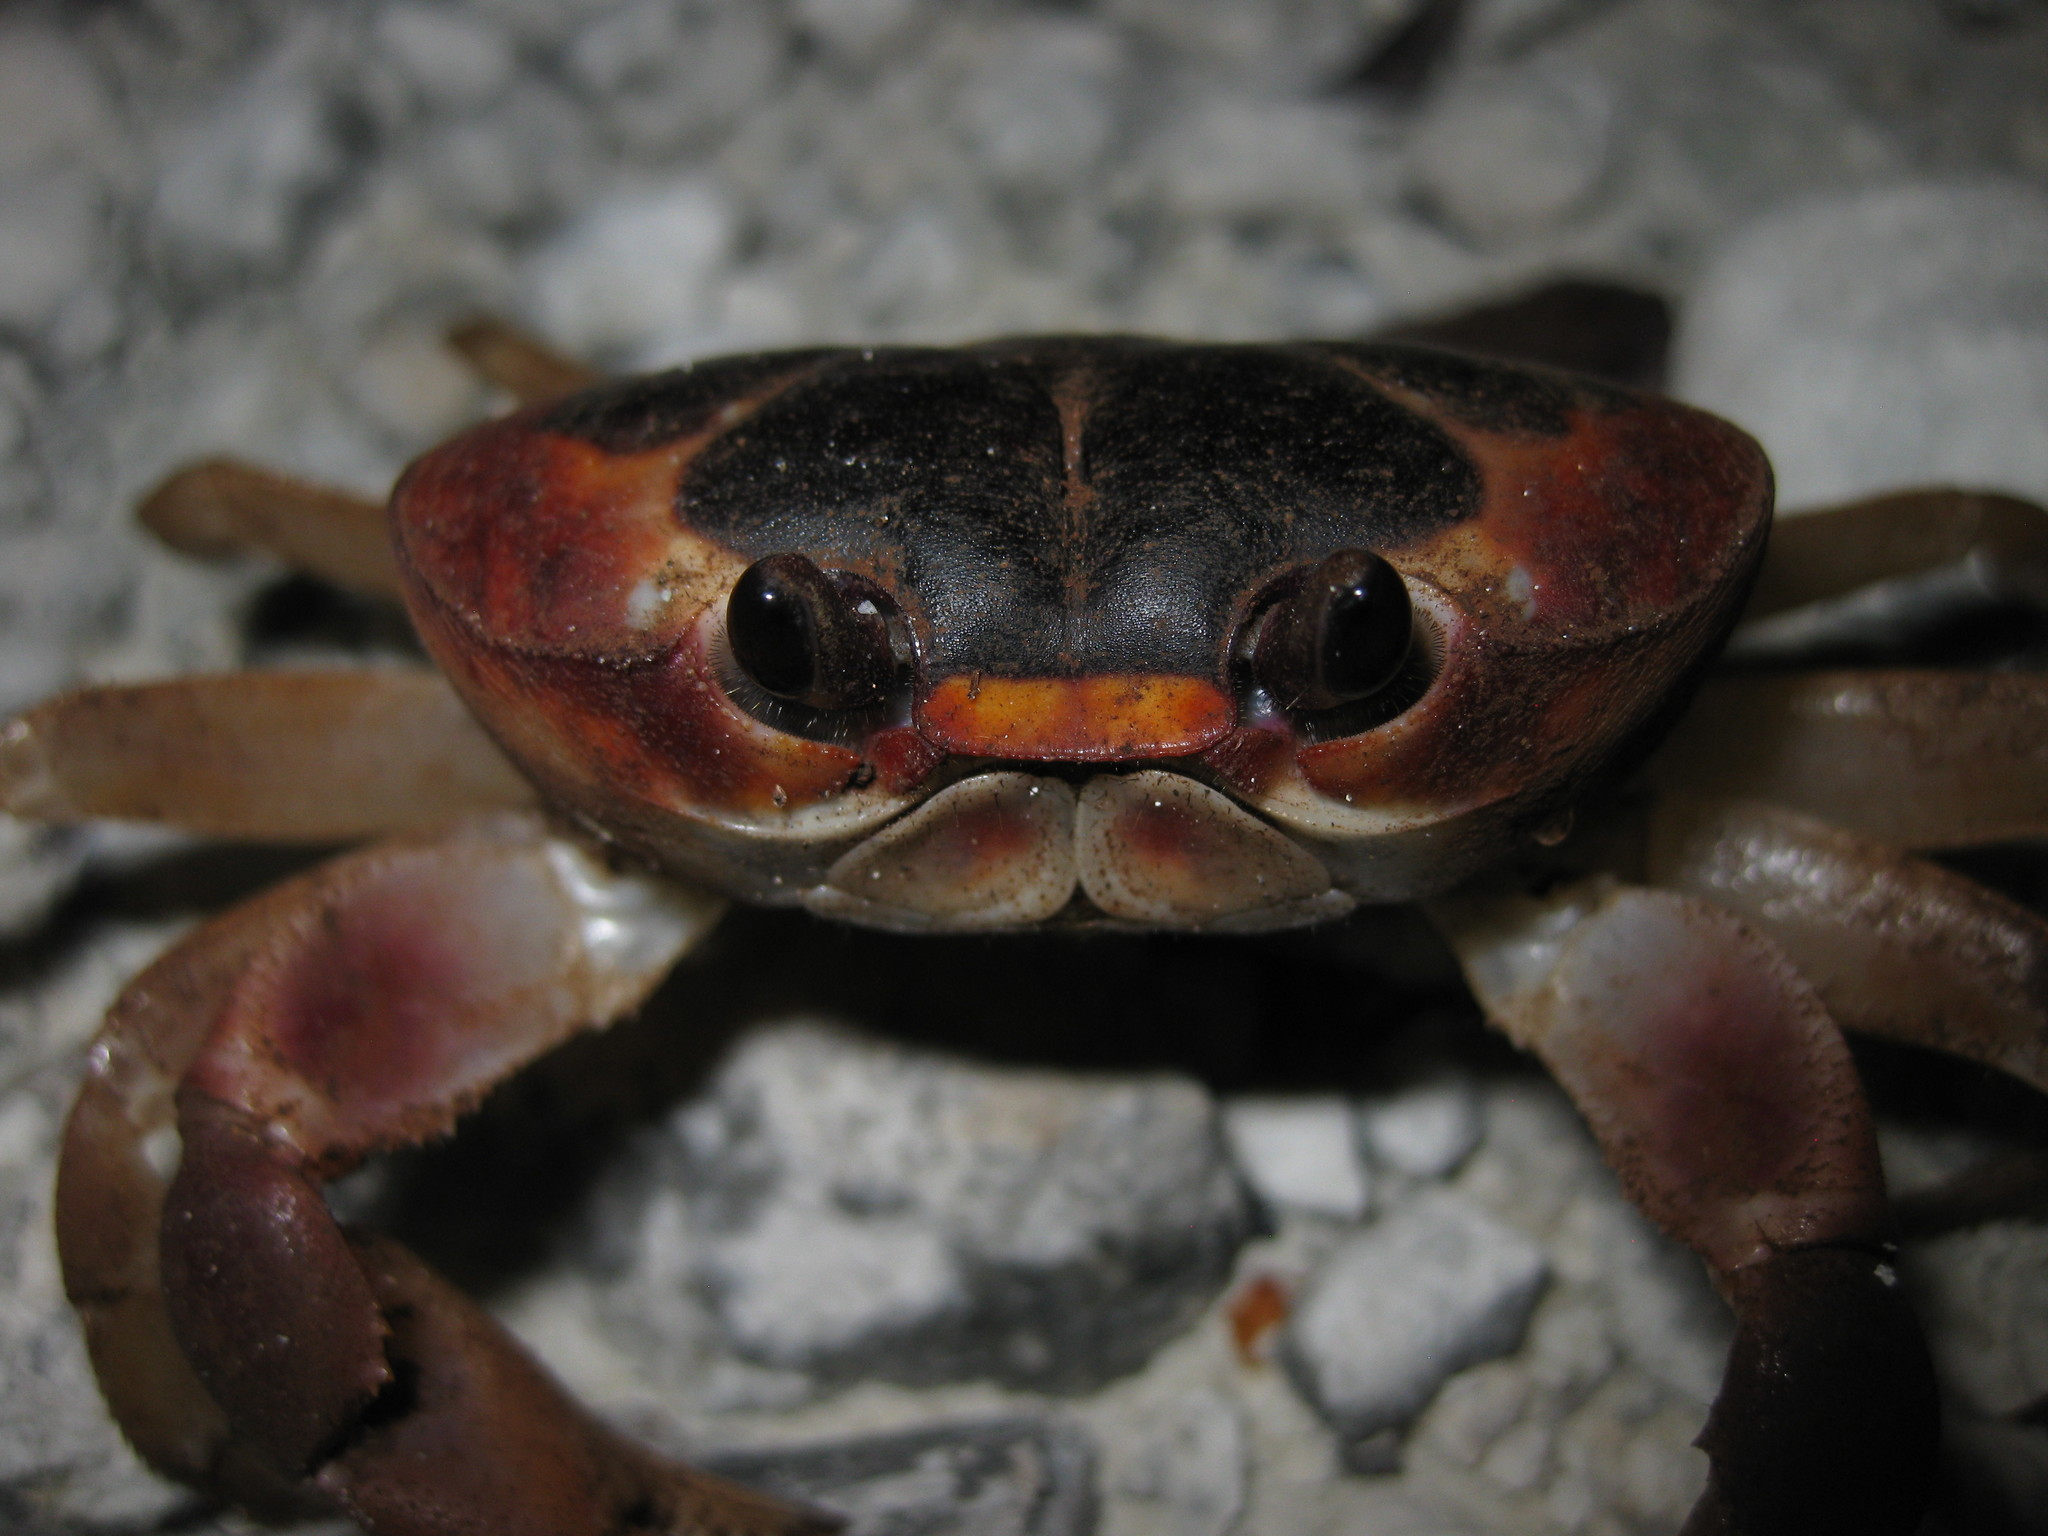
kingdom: Animalia
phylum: Arthropoda
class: Malacostraca
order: Decapoda
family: Gecarcinidae
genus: Gecarcinus
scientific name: Gecarcinus lateralis
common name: Bermuda land crab
